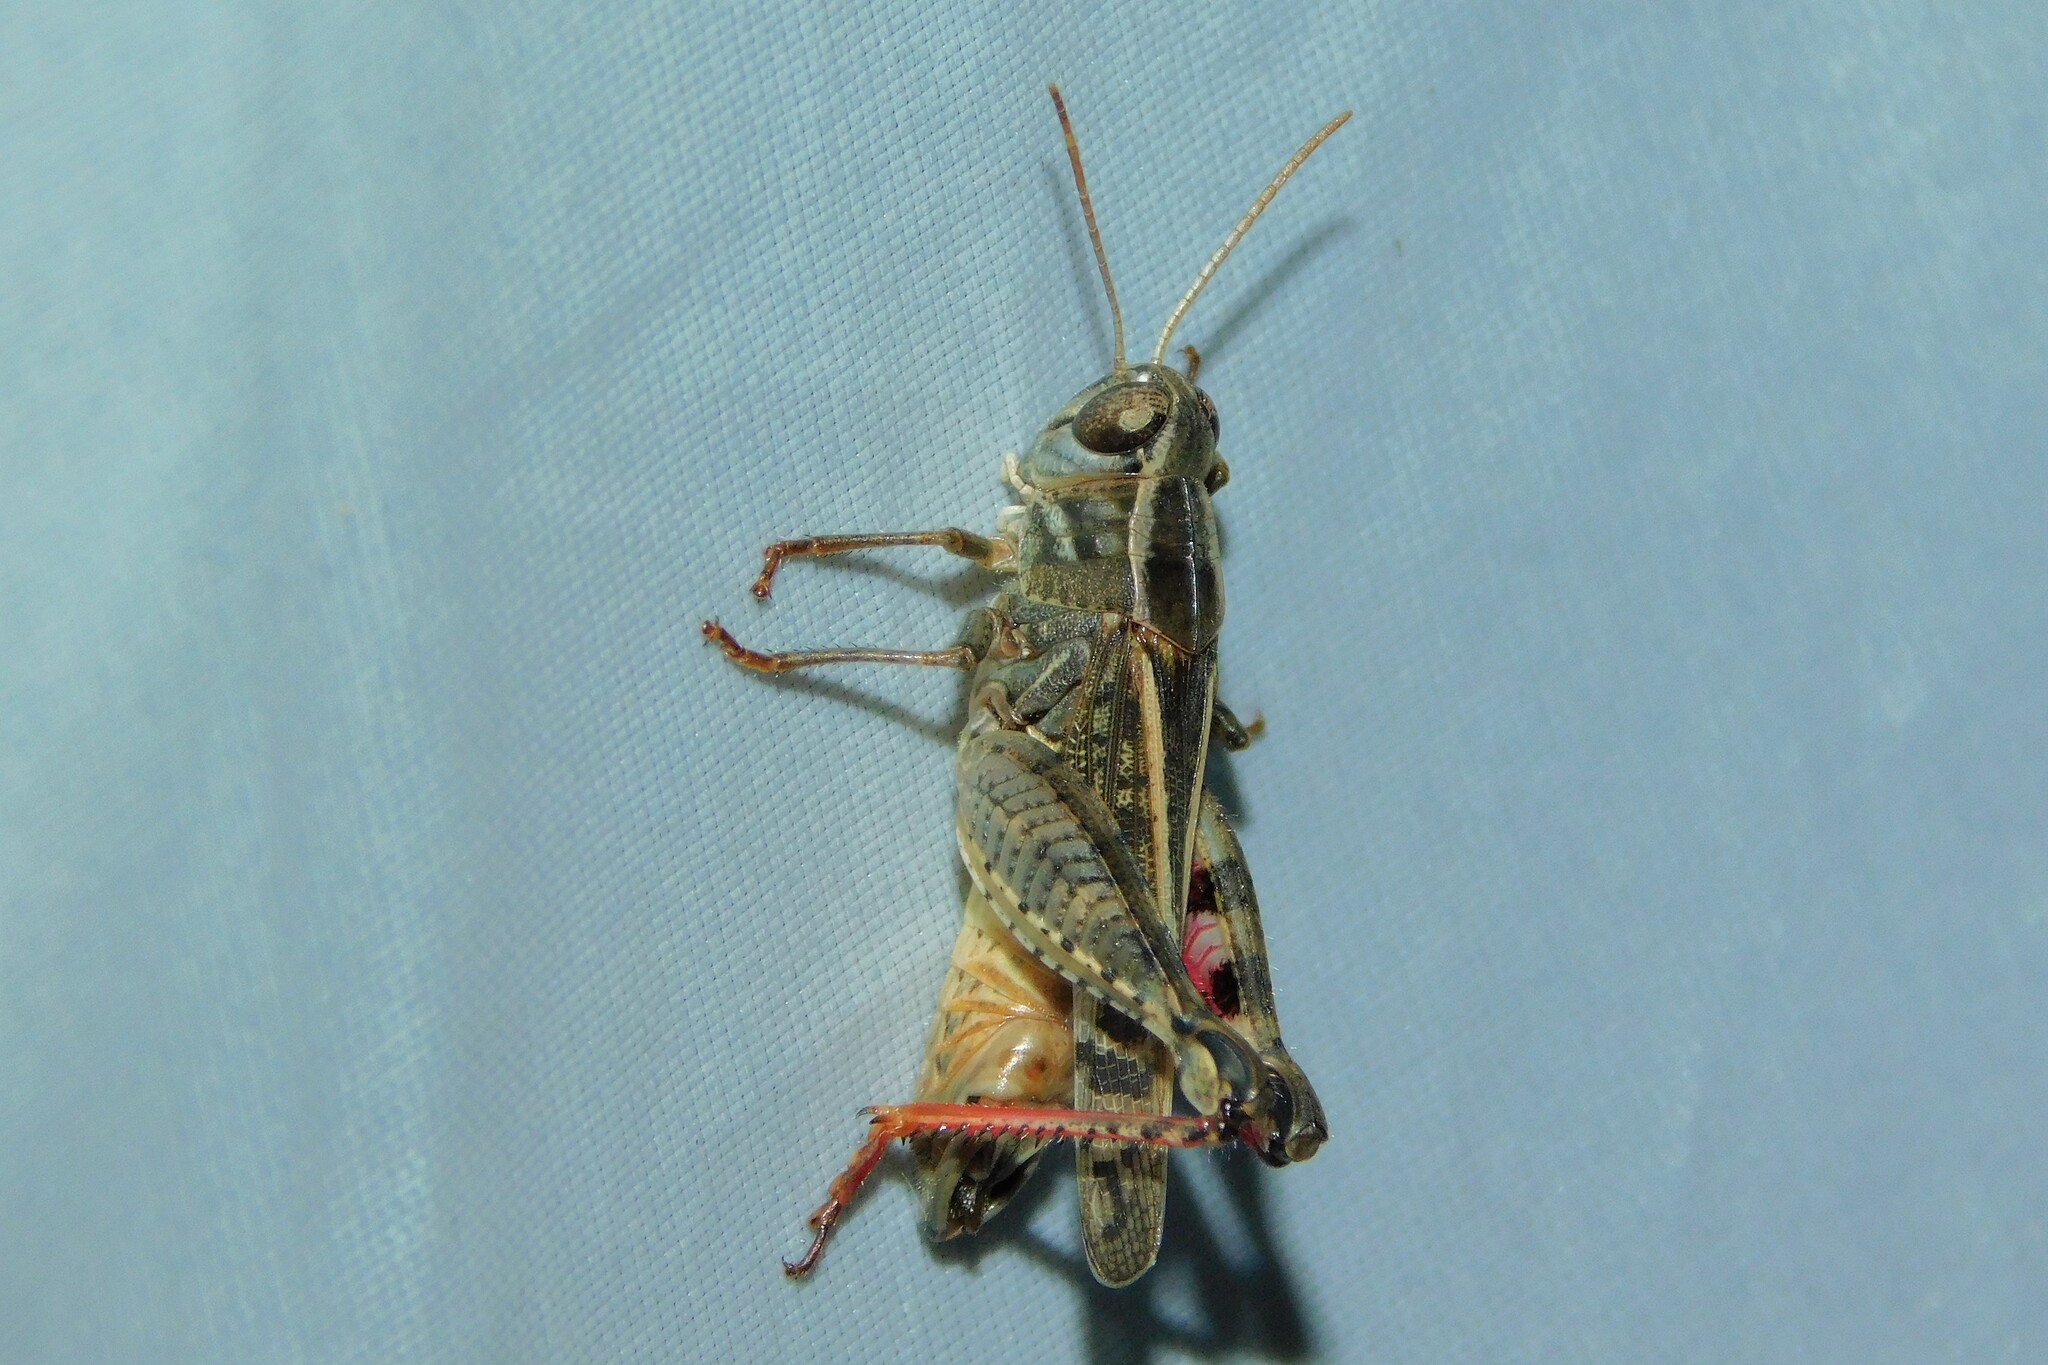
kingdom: Animalia
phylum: Arthropoda
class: Insecta
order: Orthoptera
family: Acrididae
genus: Calliptamus
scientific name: Calliptamus italicus
